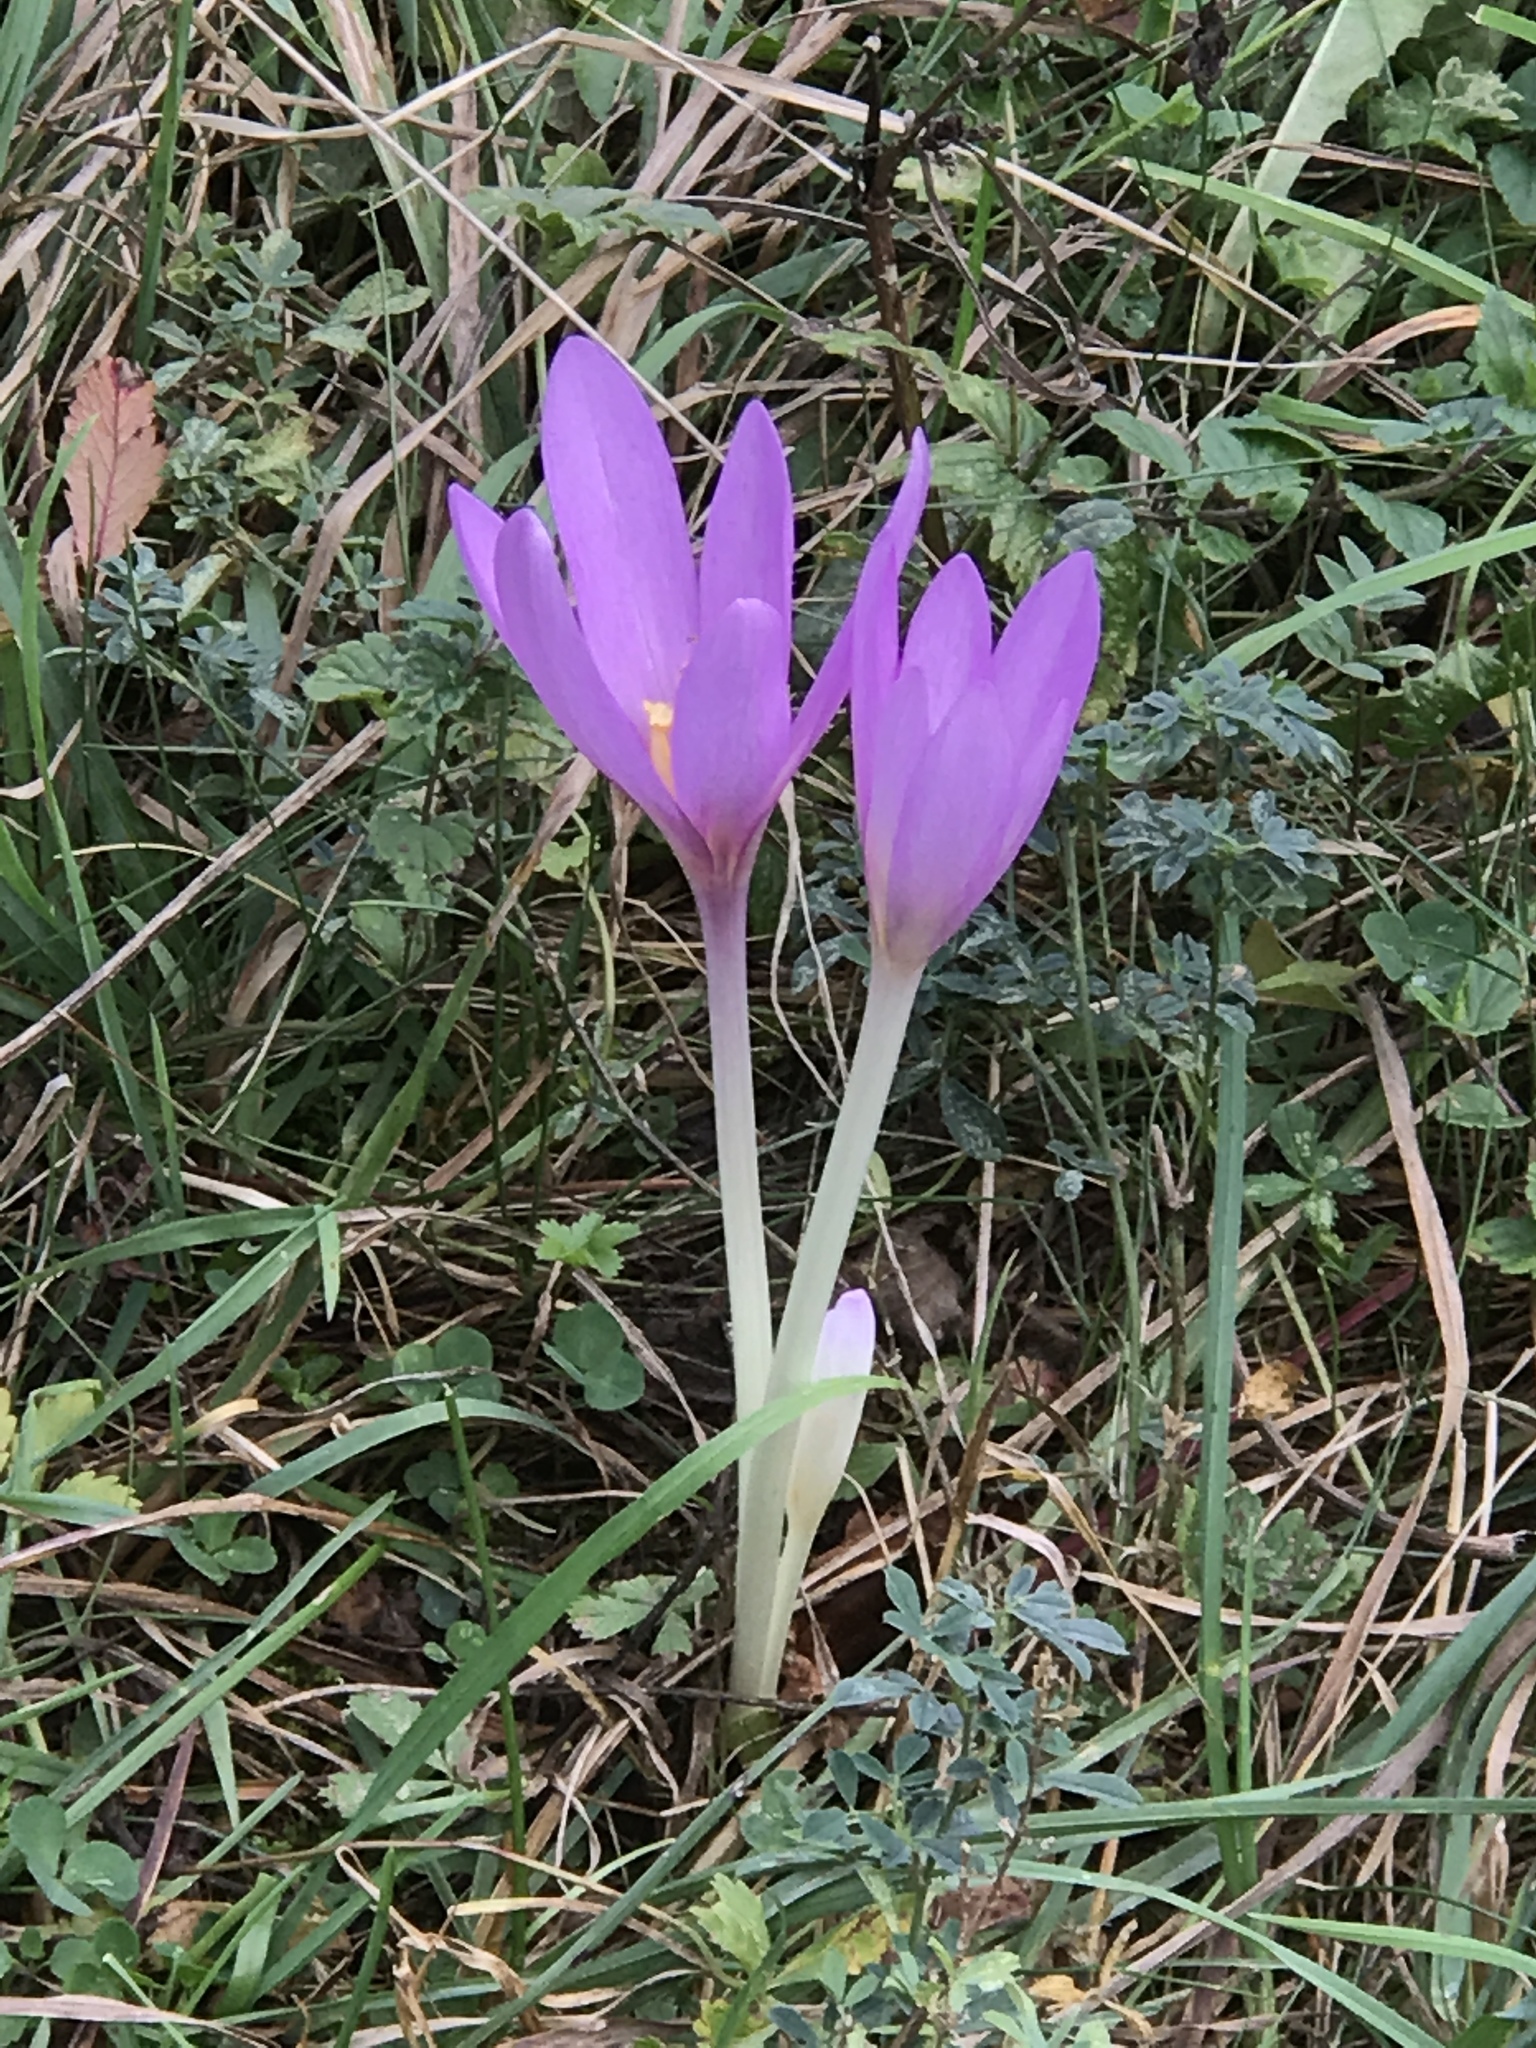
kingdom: Plantae
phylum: Tracheophyta
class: Liliopsida
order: Liliales
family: Colchicaceae
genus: Colchicum
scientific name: Colchicum autumnale
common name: Autumn crocus
